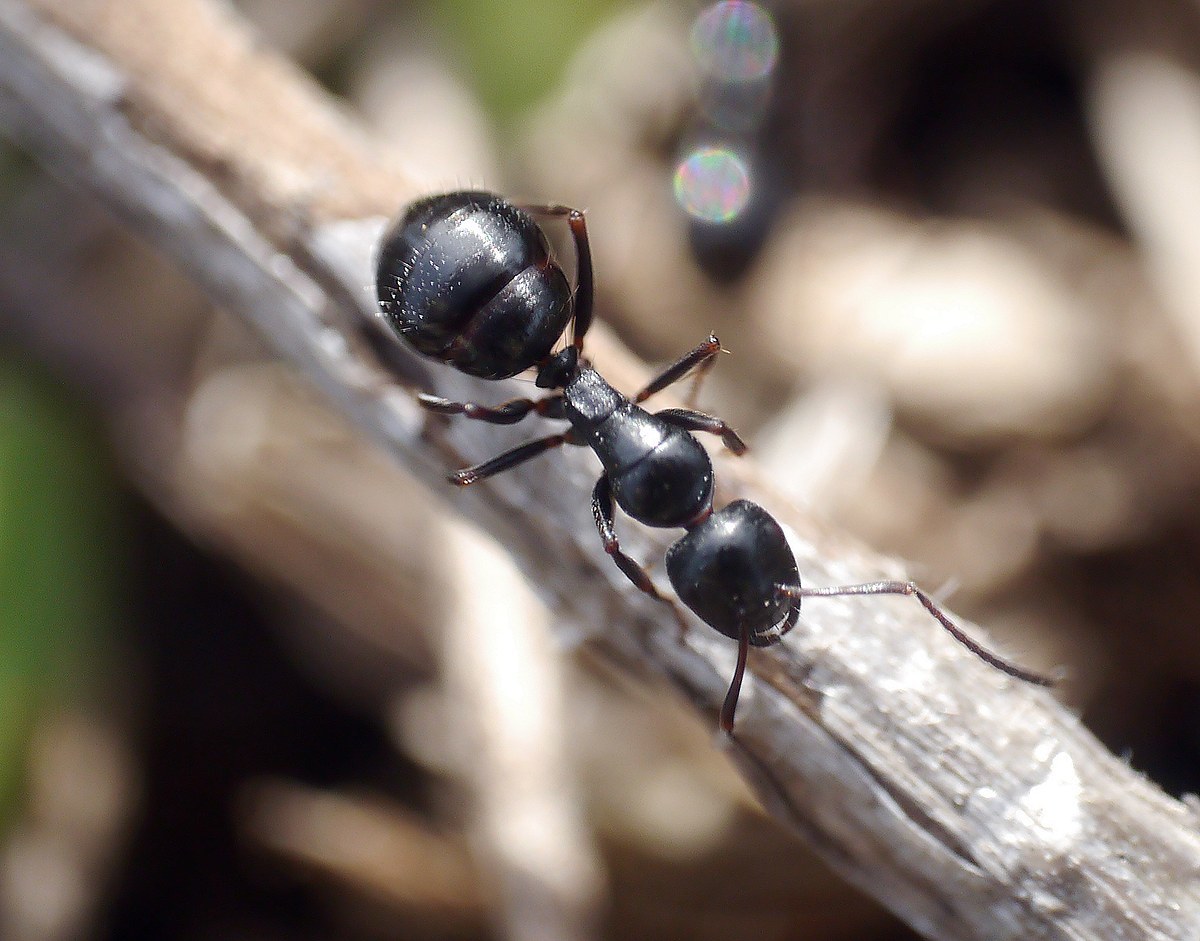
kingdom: Animalia
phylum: Arthropoda
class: Insecta
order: Hymenoptera
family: Formicidae
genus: Camponotus
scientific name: Camponotus piceus
